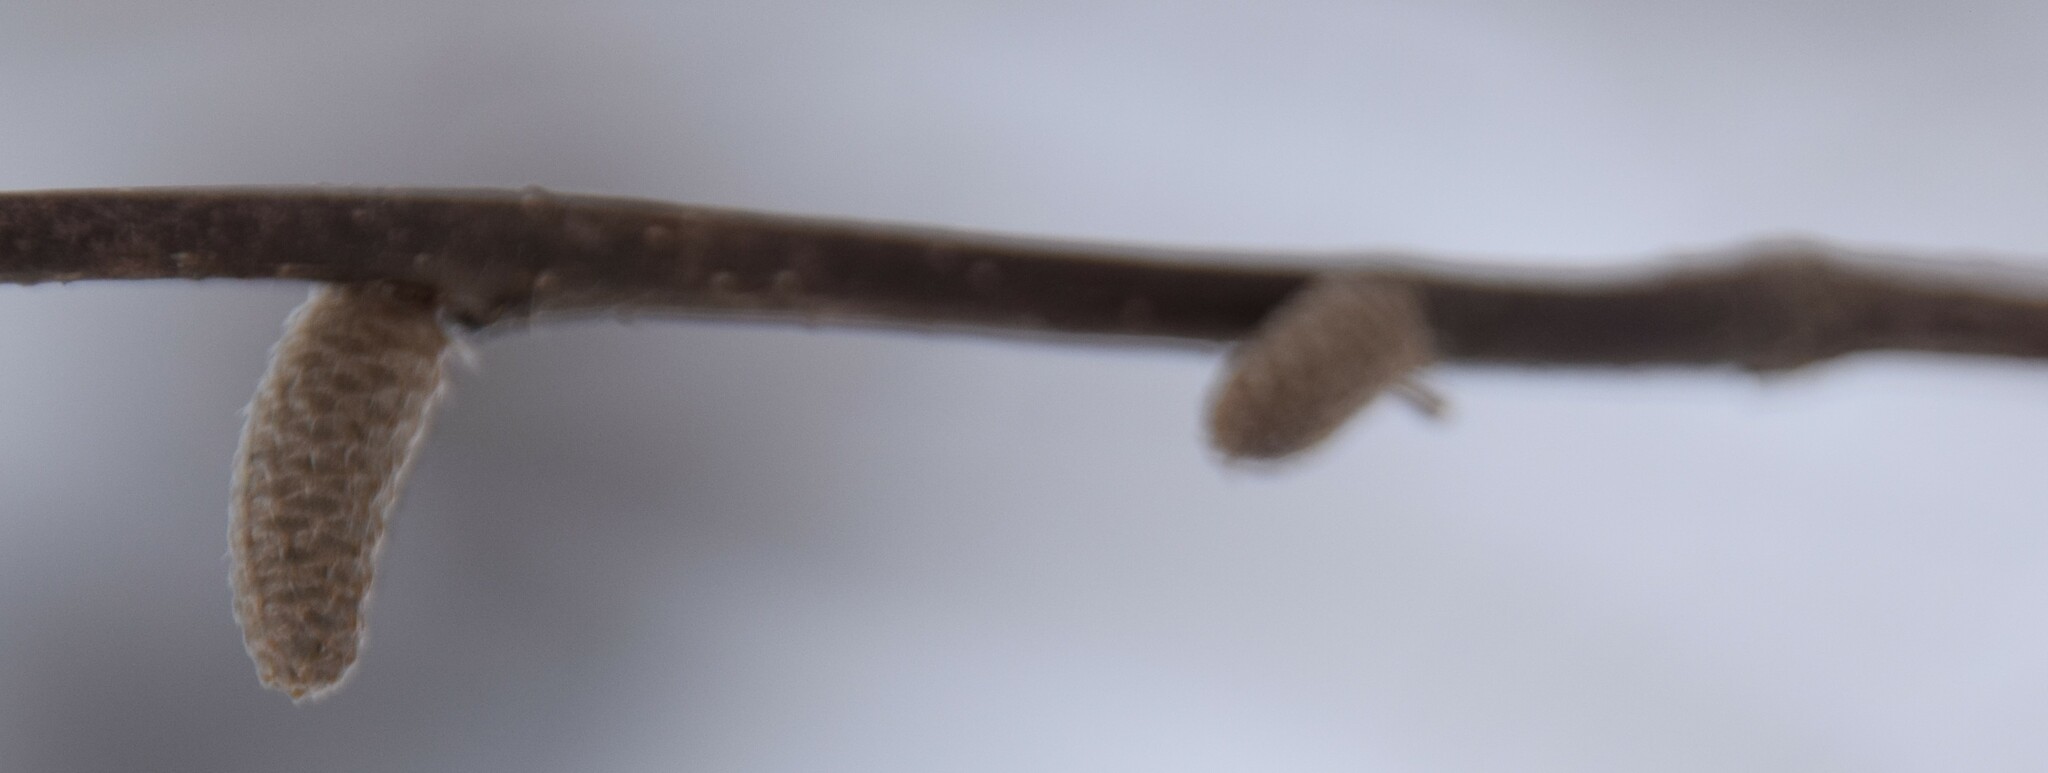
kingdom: Plantae
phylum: Tracheophyta
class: Magnoliopsida
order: Fagales
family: Betulaceae
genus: Corylus
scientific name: Corylus cornuta
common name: Beaked hazel
